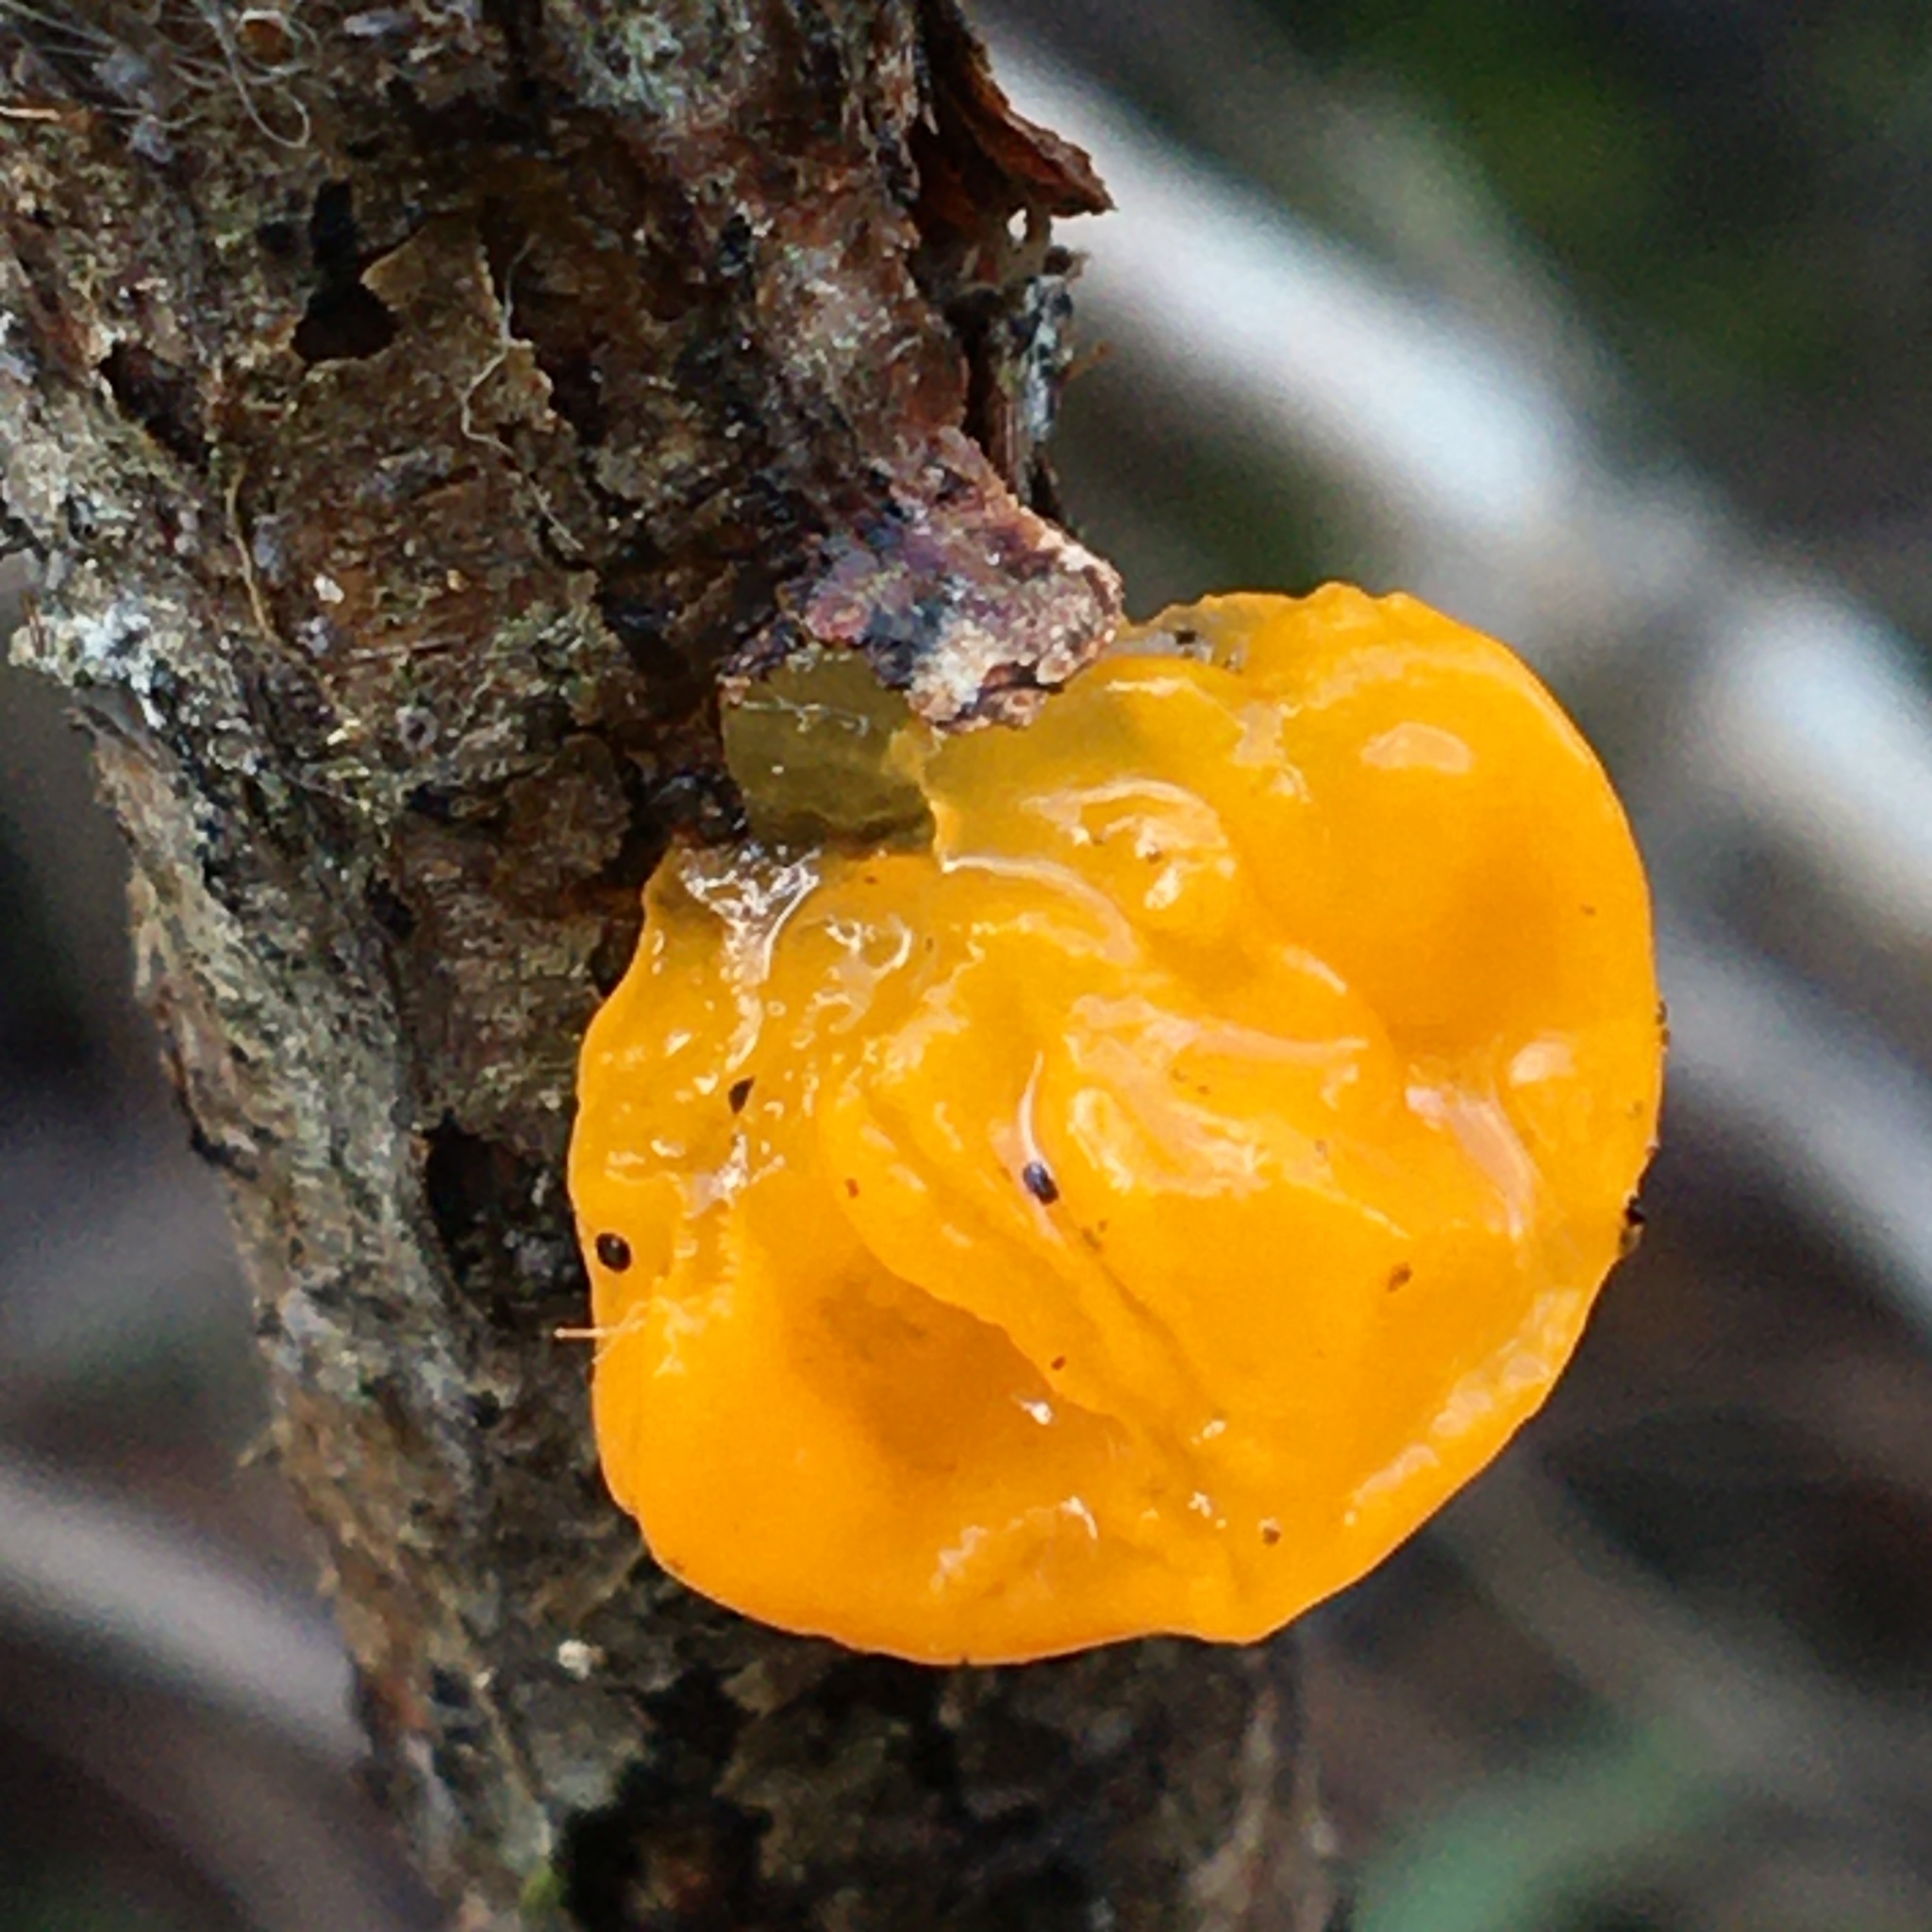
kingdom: Fungi
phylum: Basidiomycota
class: Tremellomycetes
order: Tremellales
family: Tremellaceae
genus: Tremella
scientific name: Tremella mesenterica
